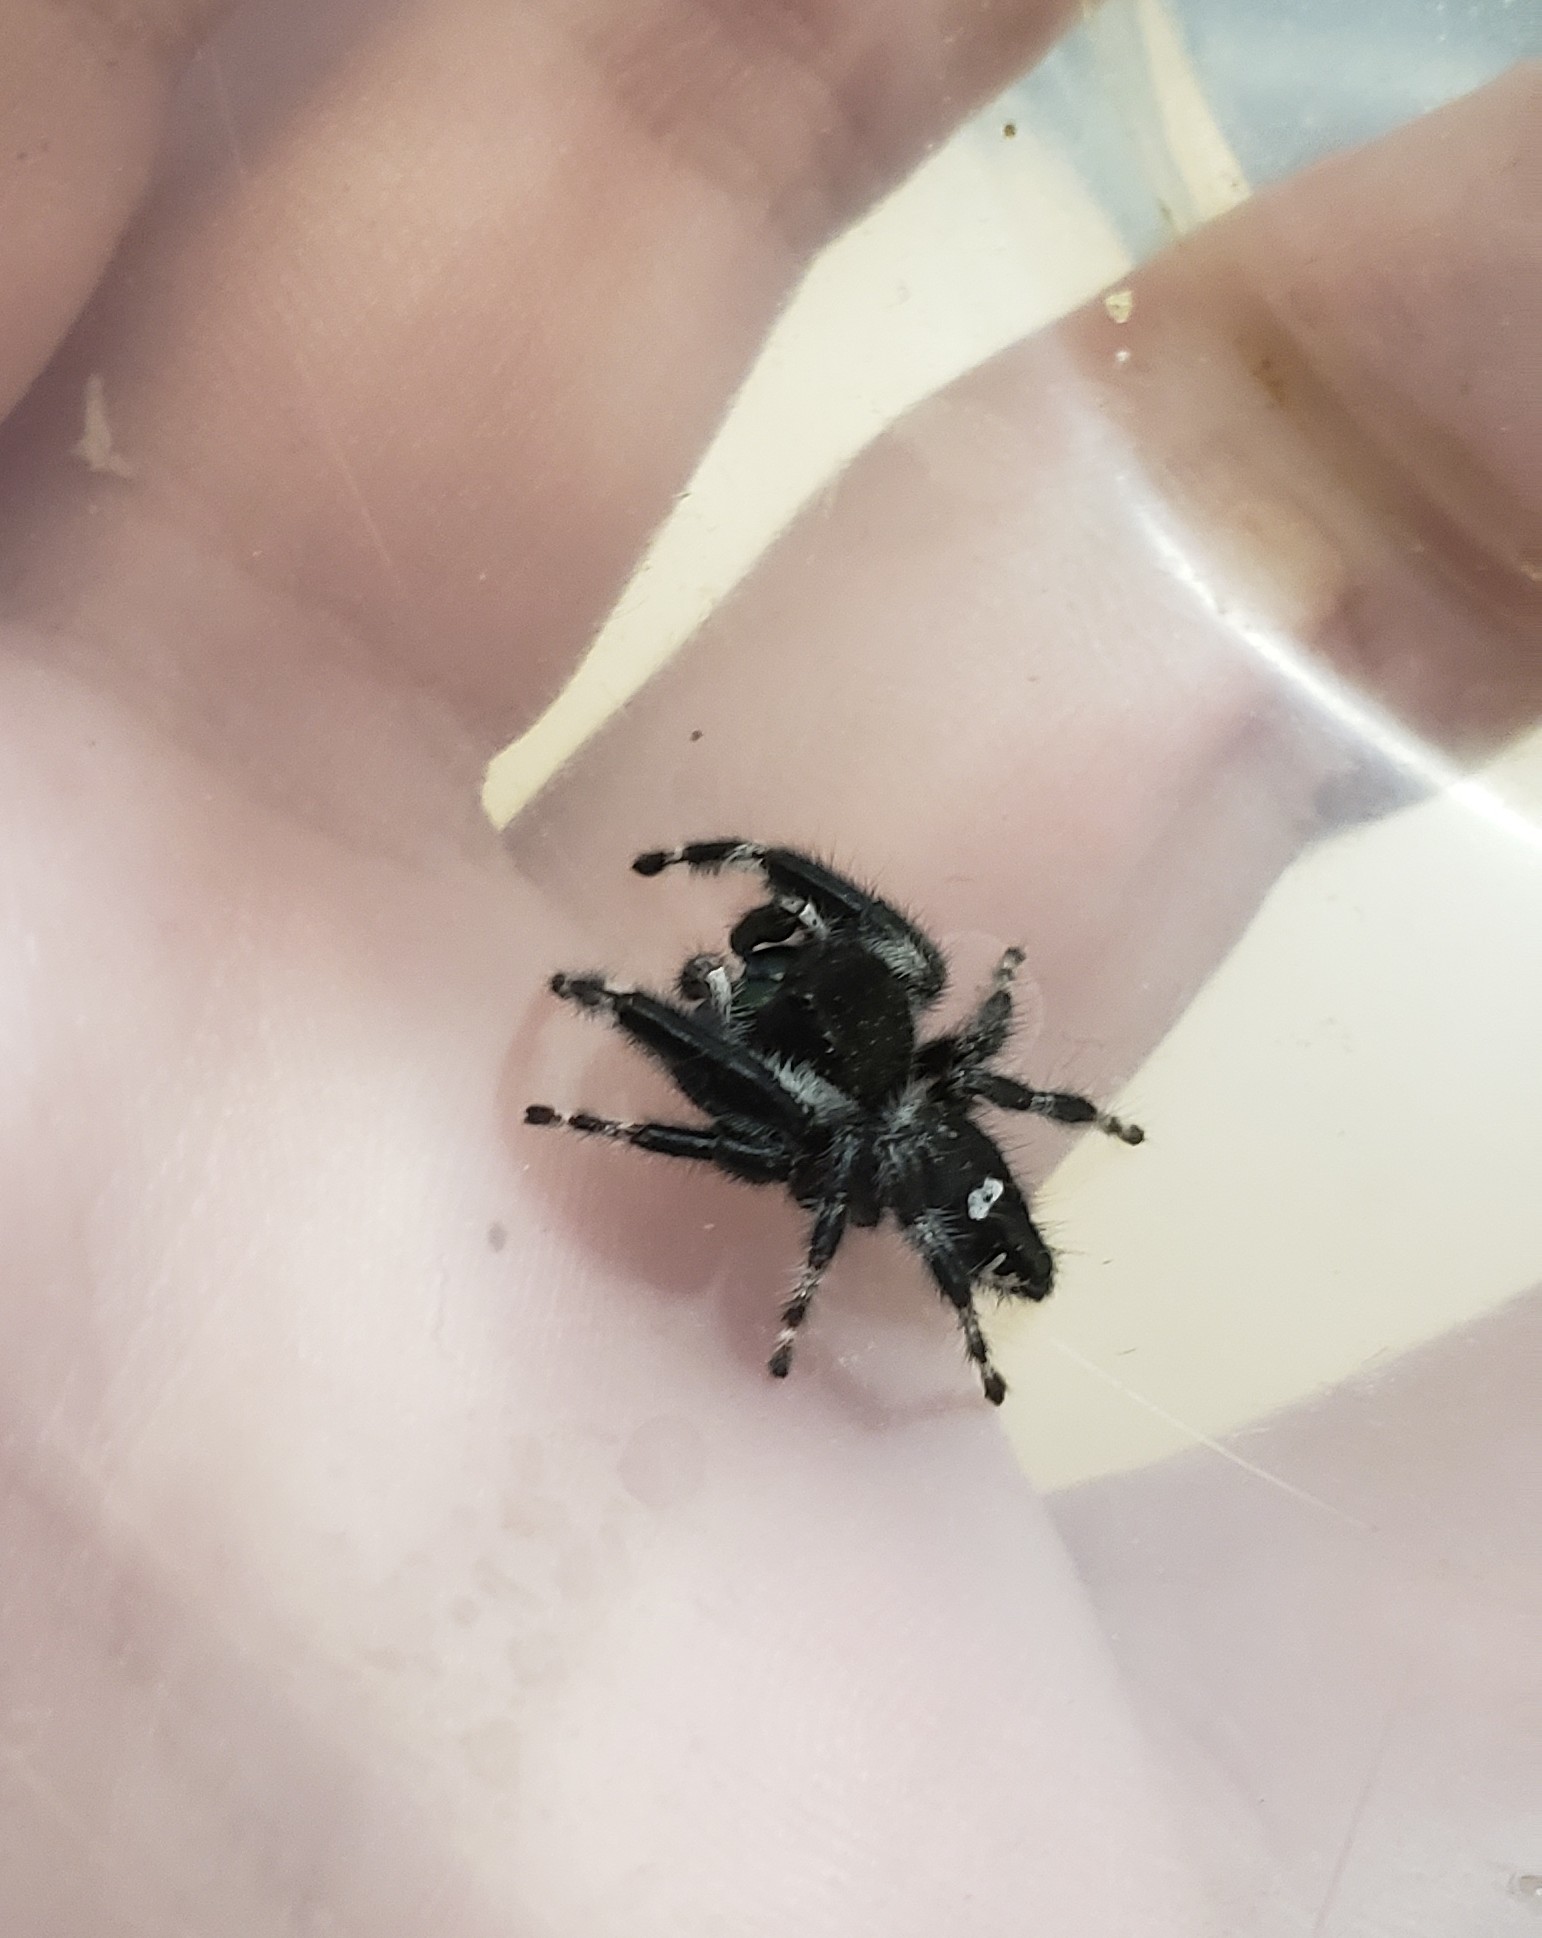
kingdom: Animalia
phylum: Arthropoda
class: Arachnida
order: Araneae
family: Salticidae
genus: Phidippus
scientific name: Phidippus audax
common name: Bold jumper
